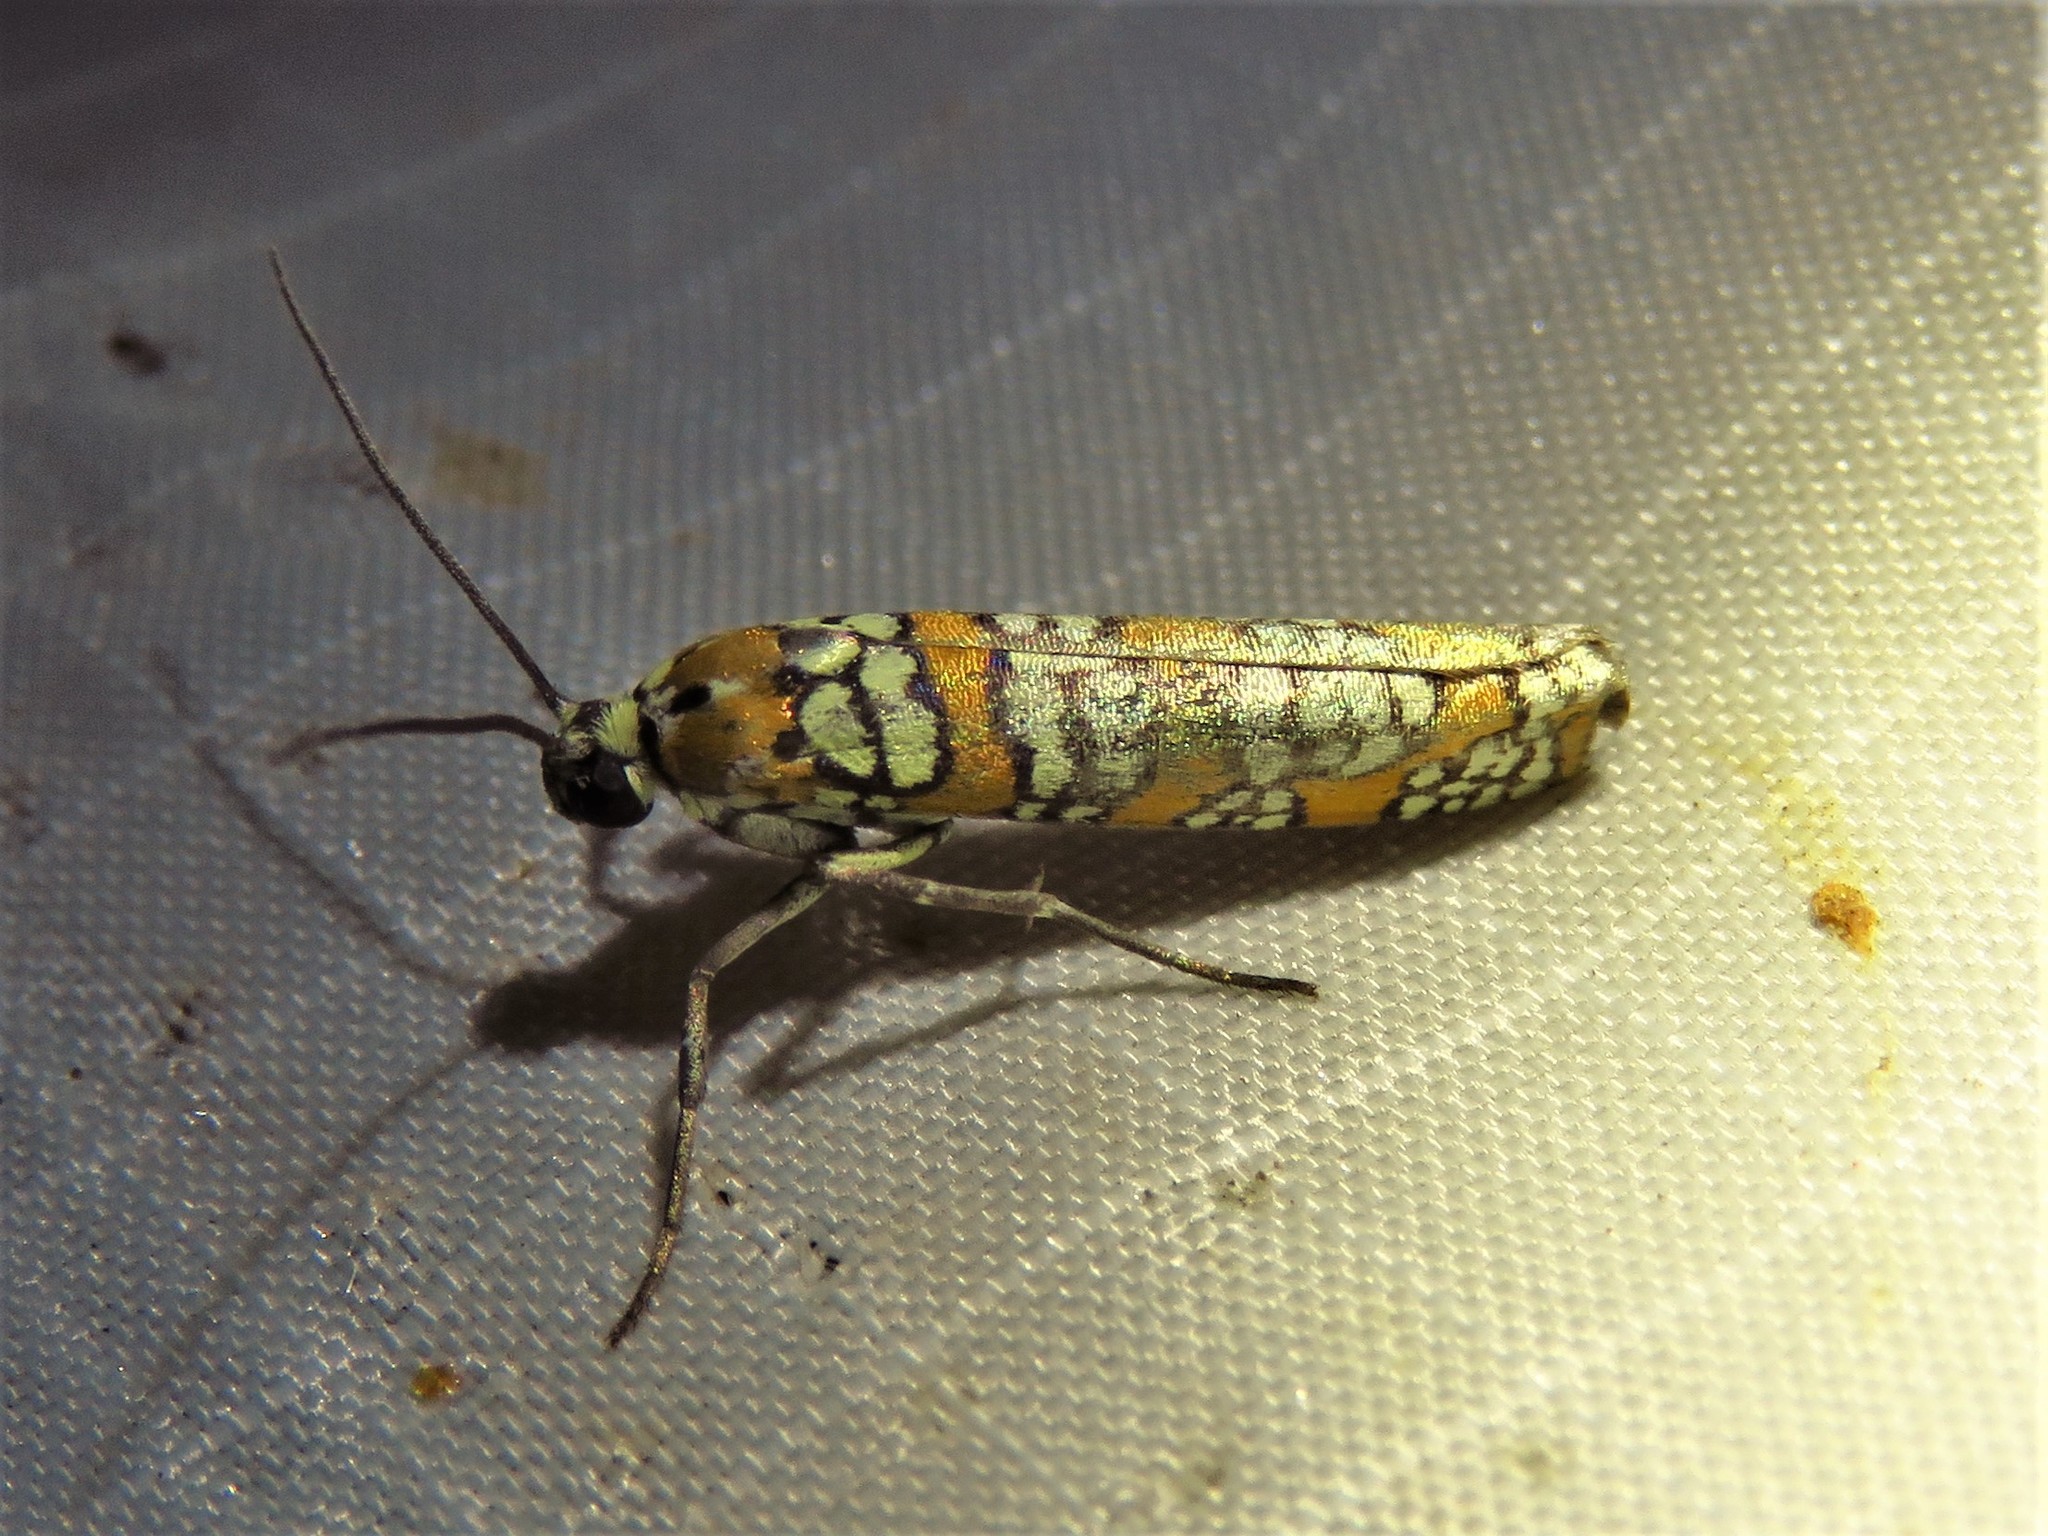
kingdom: Animalia
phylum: Arthropoda
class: Insecta
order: Lepidoptera
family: Attevidae
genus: Atteva
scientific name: Atteva punctella
